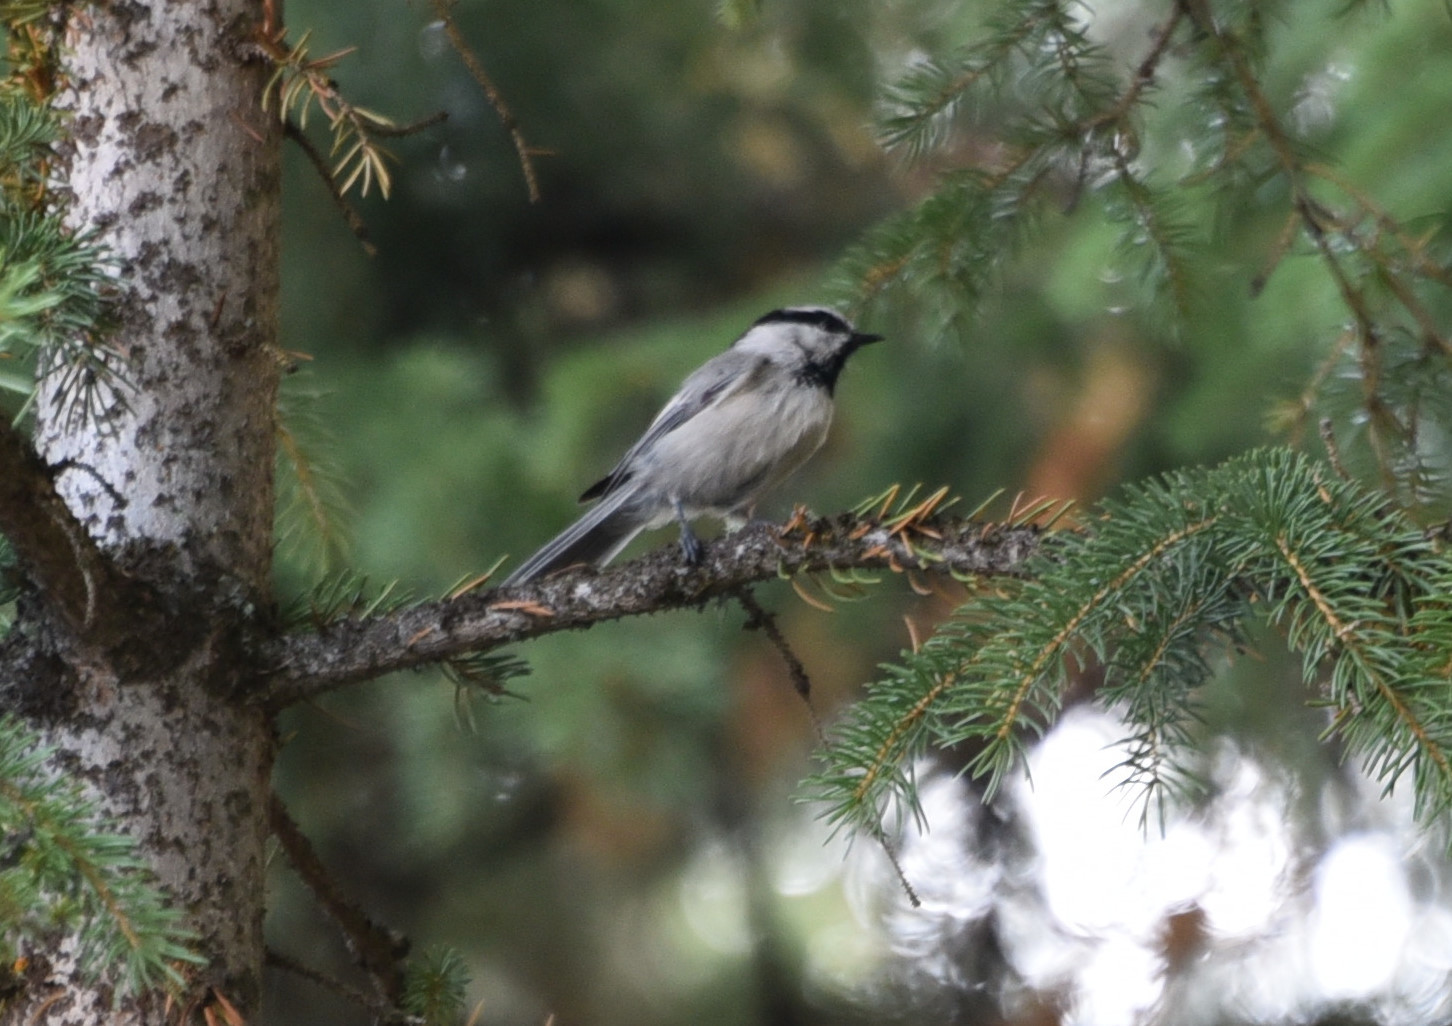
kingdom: Animalia
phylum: Chordata
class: Aves
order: Passeriformes
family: Paridae
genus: Poecile
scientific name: Poecile gambeli
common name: Mountain chickadee
